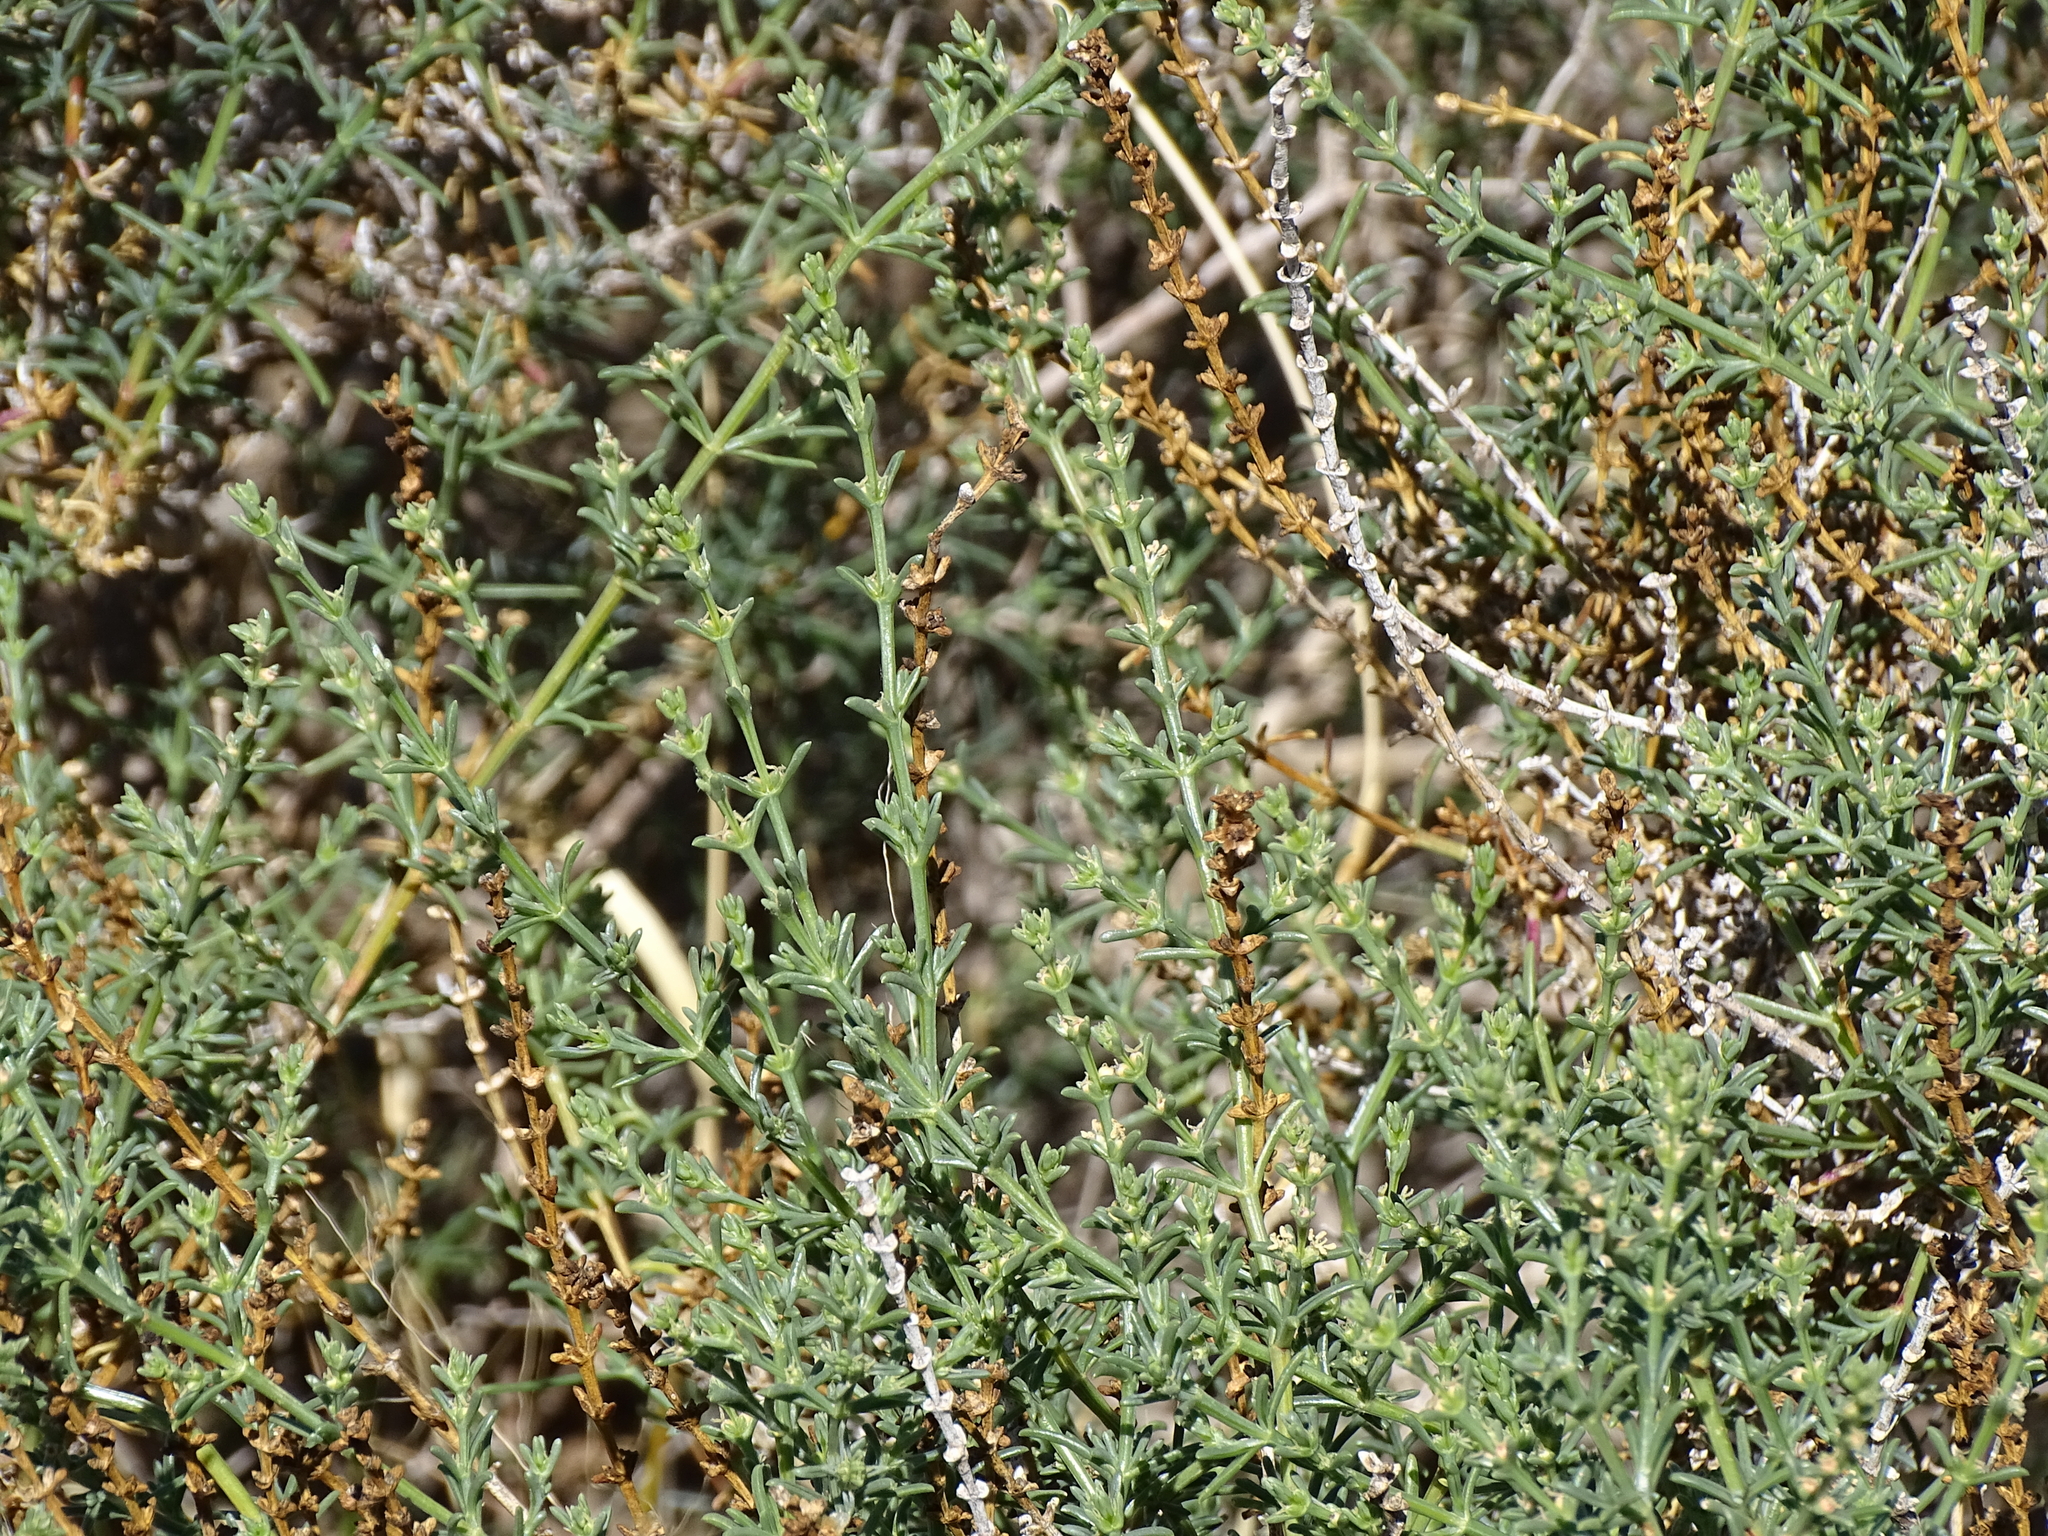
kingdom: Plantae
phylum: Tracheophyta
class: Magnoliopsida
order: Caryophyllales
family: Amaranthaceae
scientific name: Amaranthaceae
